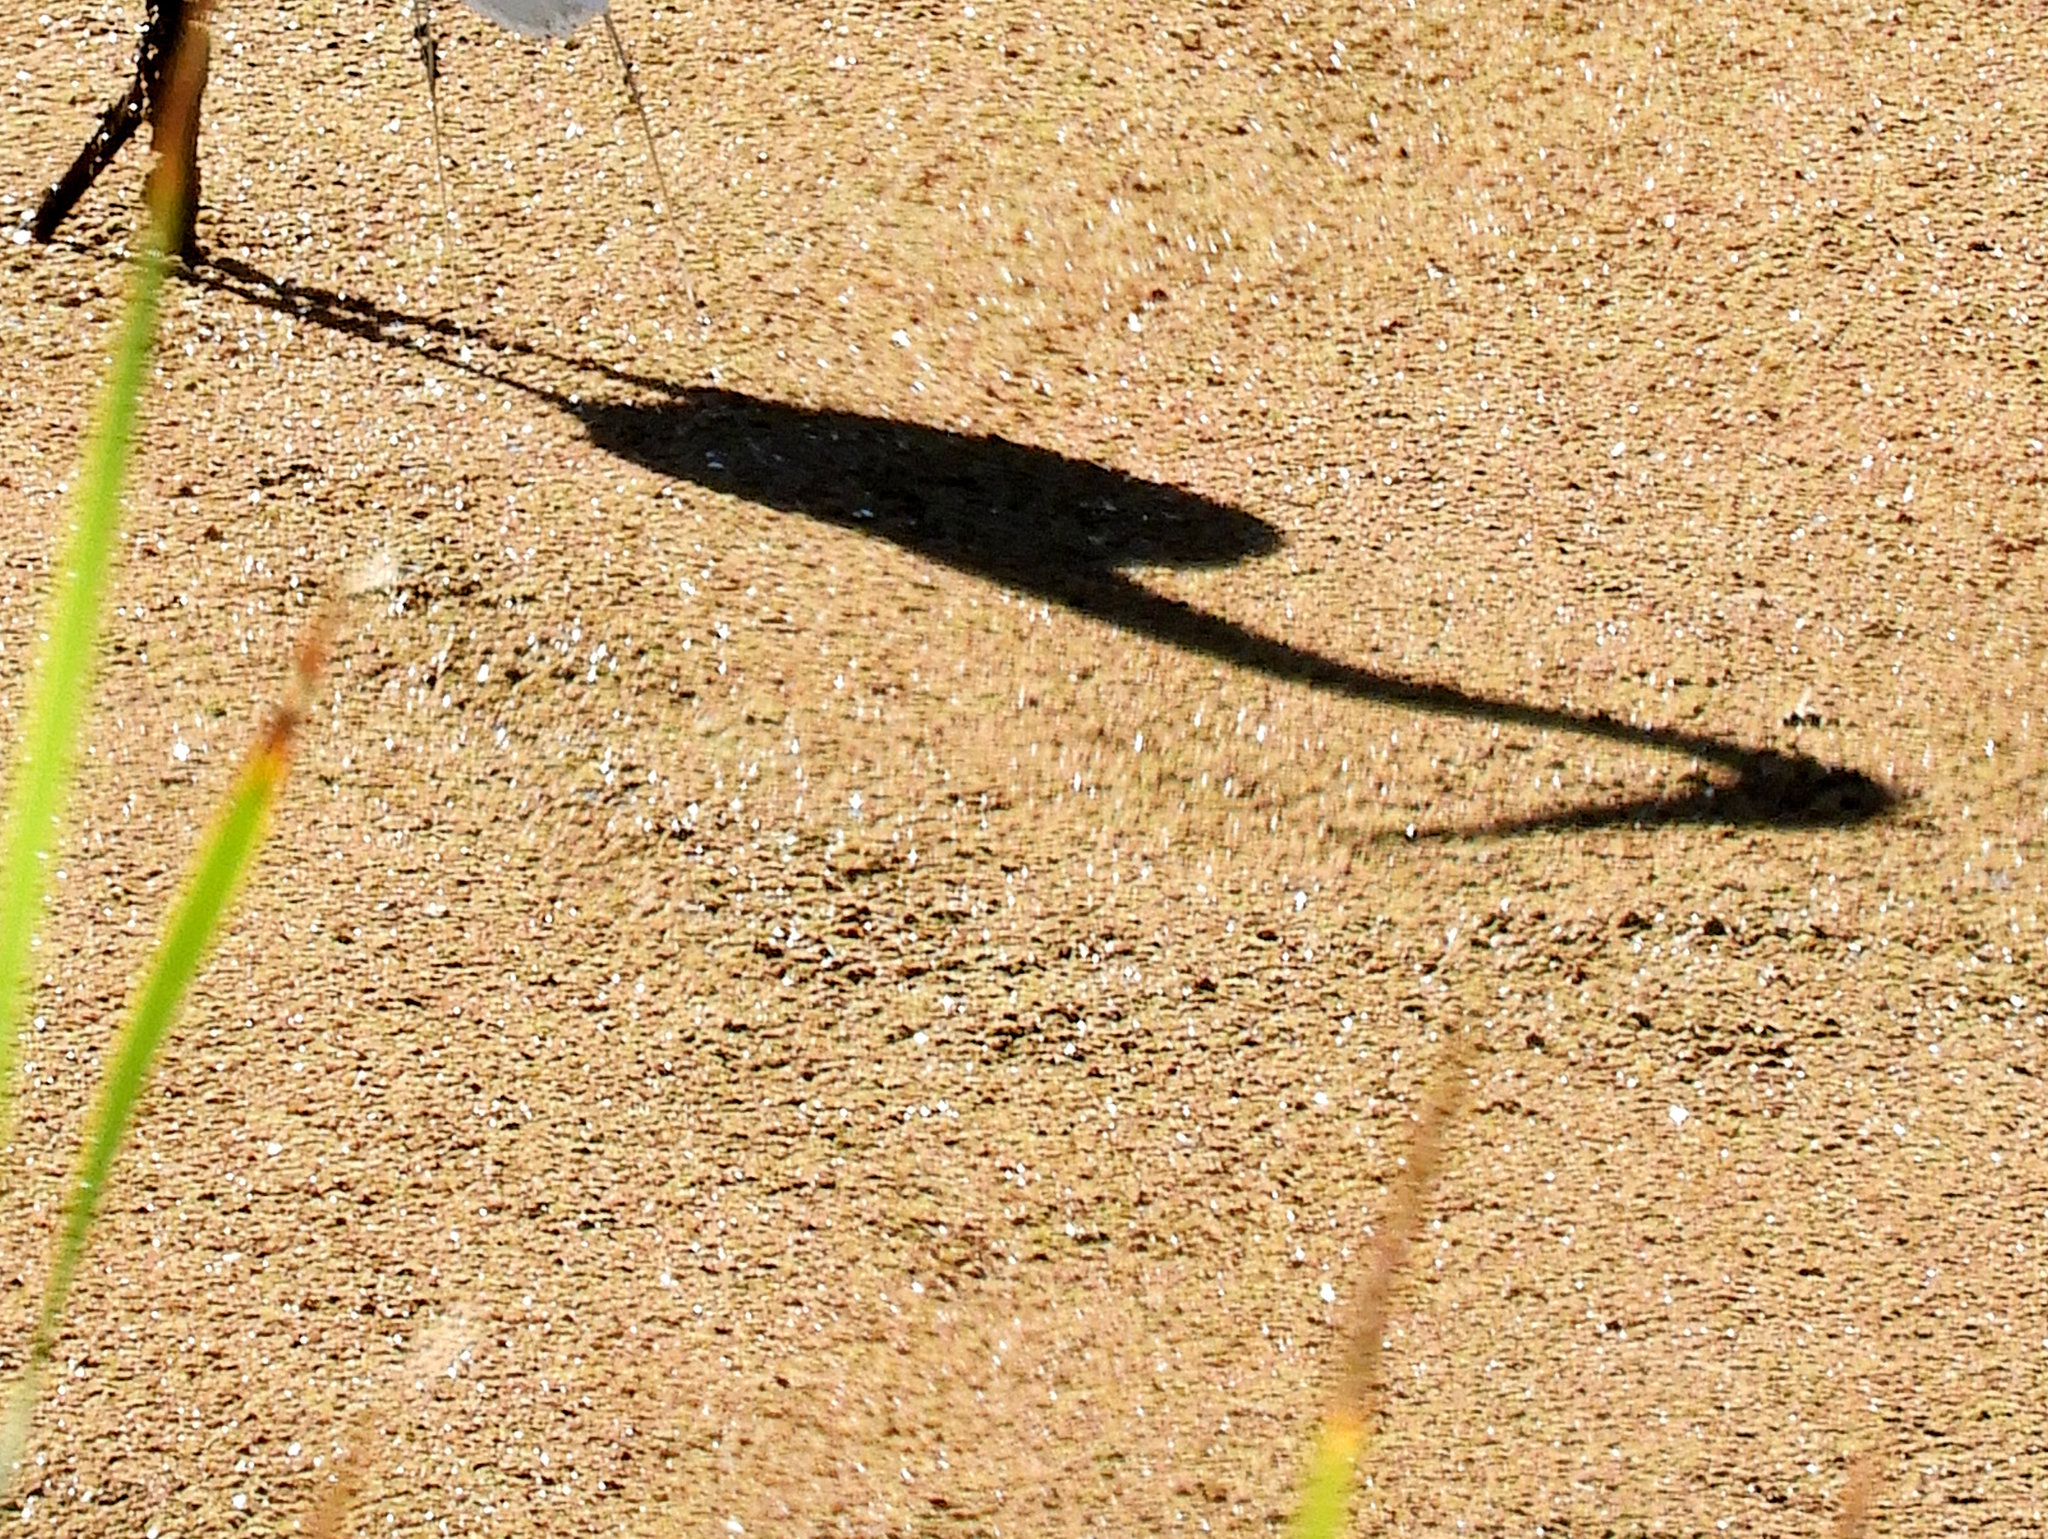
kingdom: Animalia
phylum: Chordata
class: Aves
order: Pelecaniformes
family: Ardeidae
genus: Ardea
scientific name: Ardea alba
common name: Great egret
